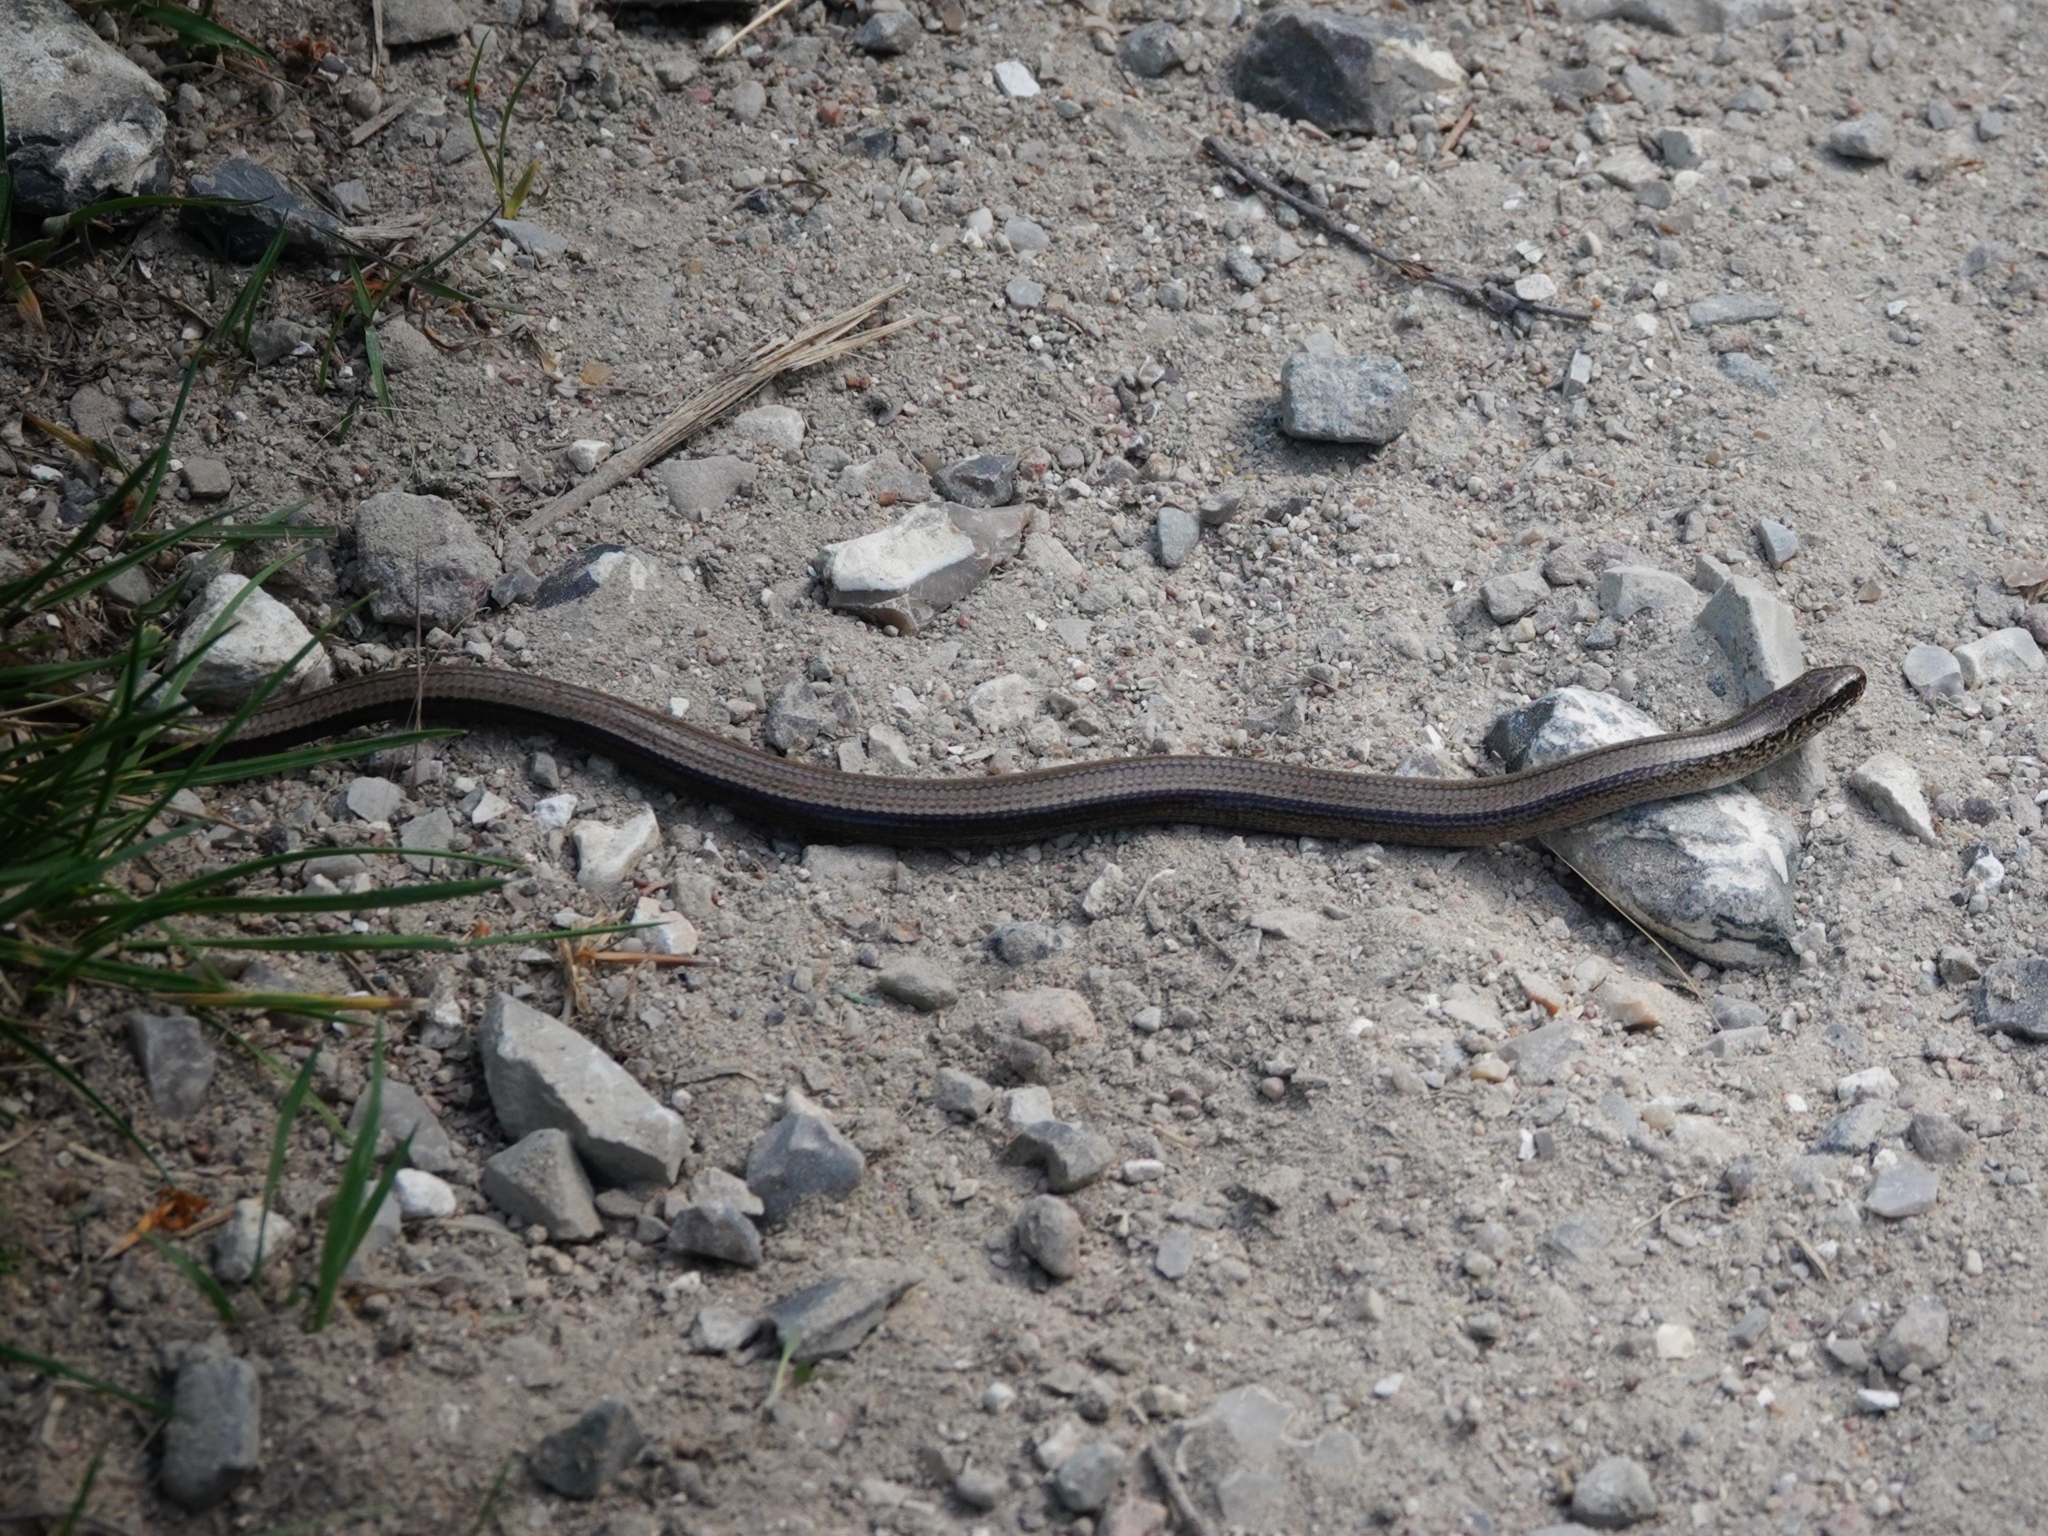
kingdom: Animalia
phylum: Chordata
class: Squamata
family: Anguidae
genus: Anguis
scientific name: Anguis fragilis
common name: Slow worm
